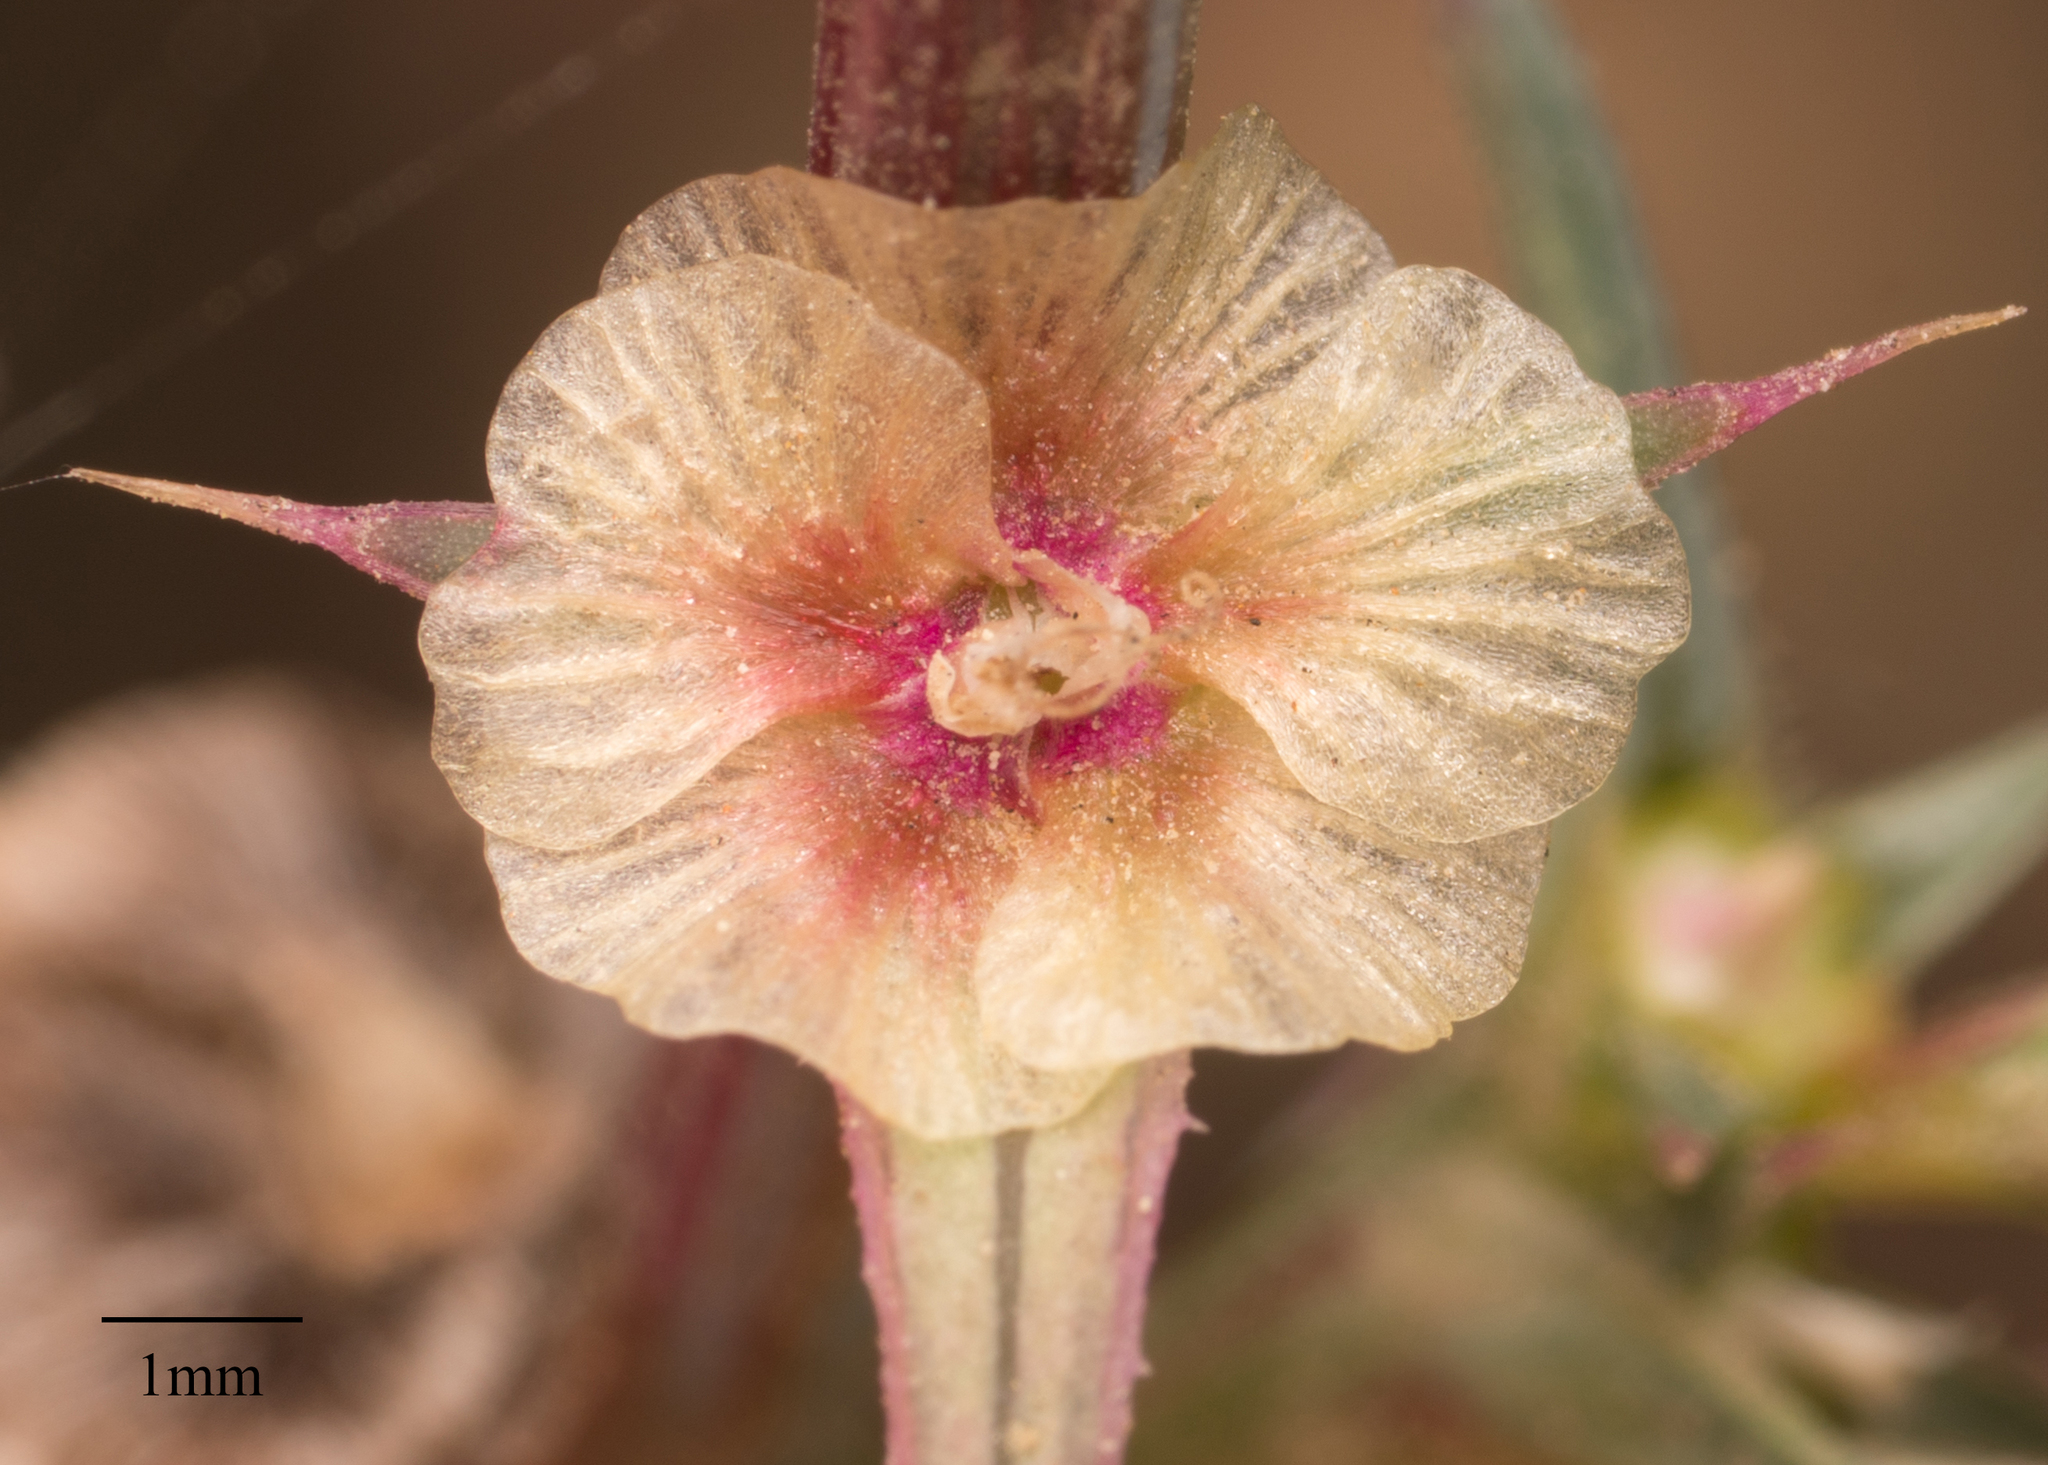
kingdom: Plantae
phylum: Tracheophyta
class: Magnoliopsida
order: Caryophyllales
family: Amaranthaceae
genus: Salsola
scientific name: Salsola australis
